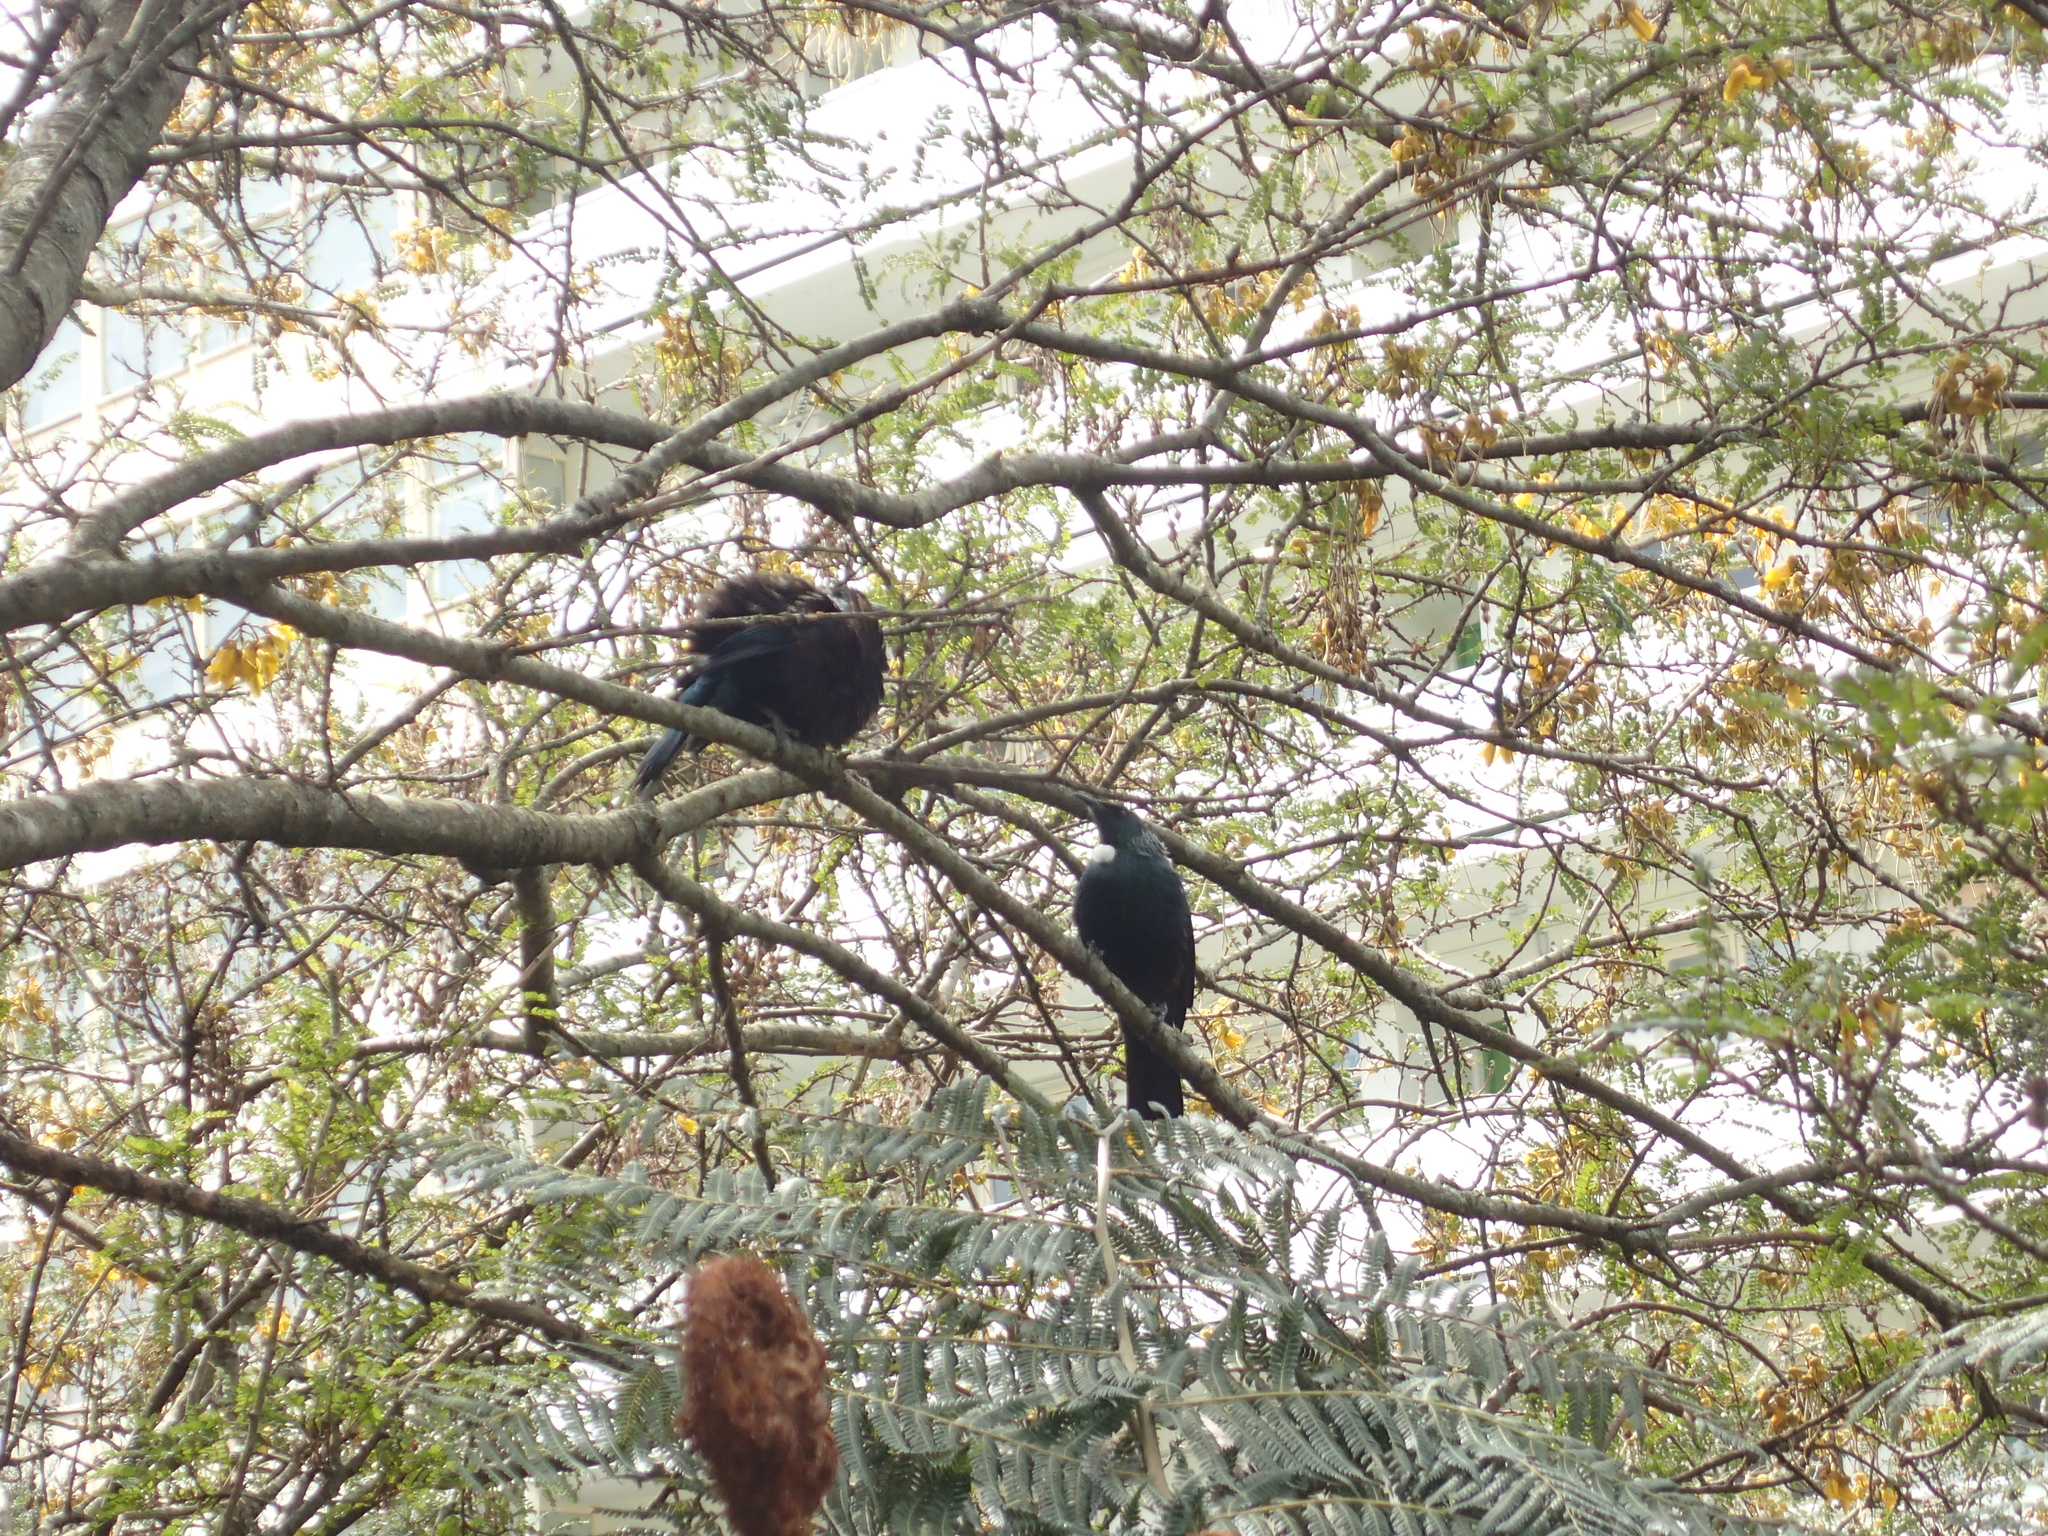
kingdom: Animalia
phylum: Chordata
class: Aves
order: Passeriformes
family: Meliphagidae
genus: Prosthemadera
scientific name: Prosthemadera novaeseelandiae
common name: Tui
